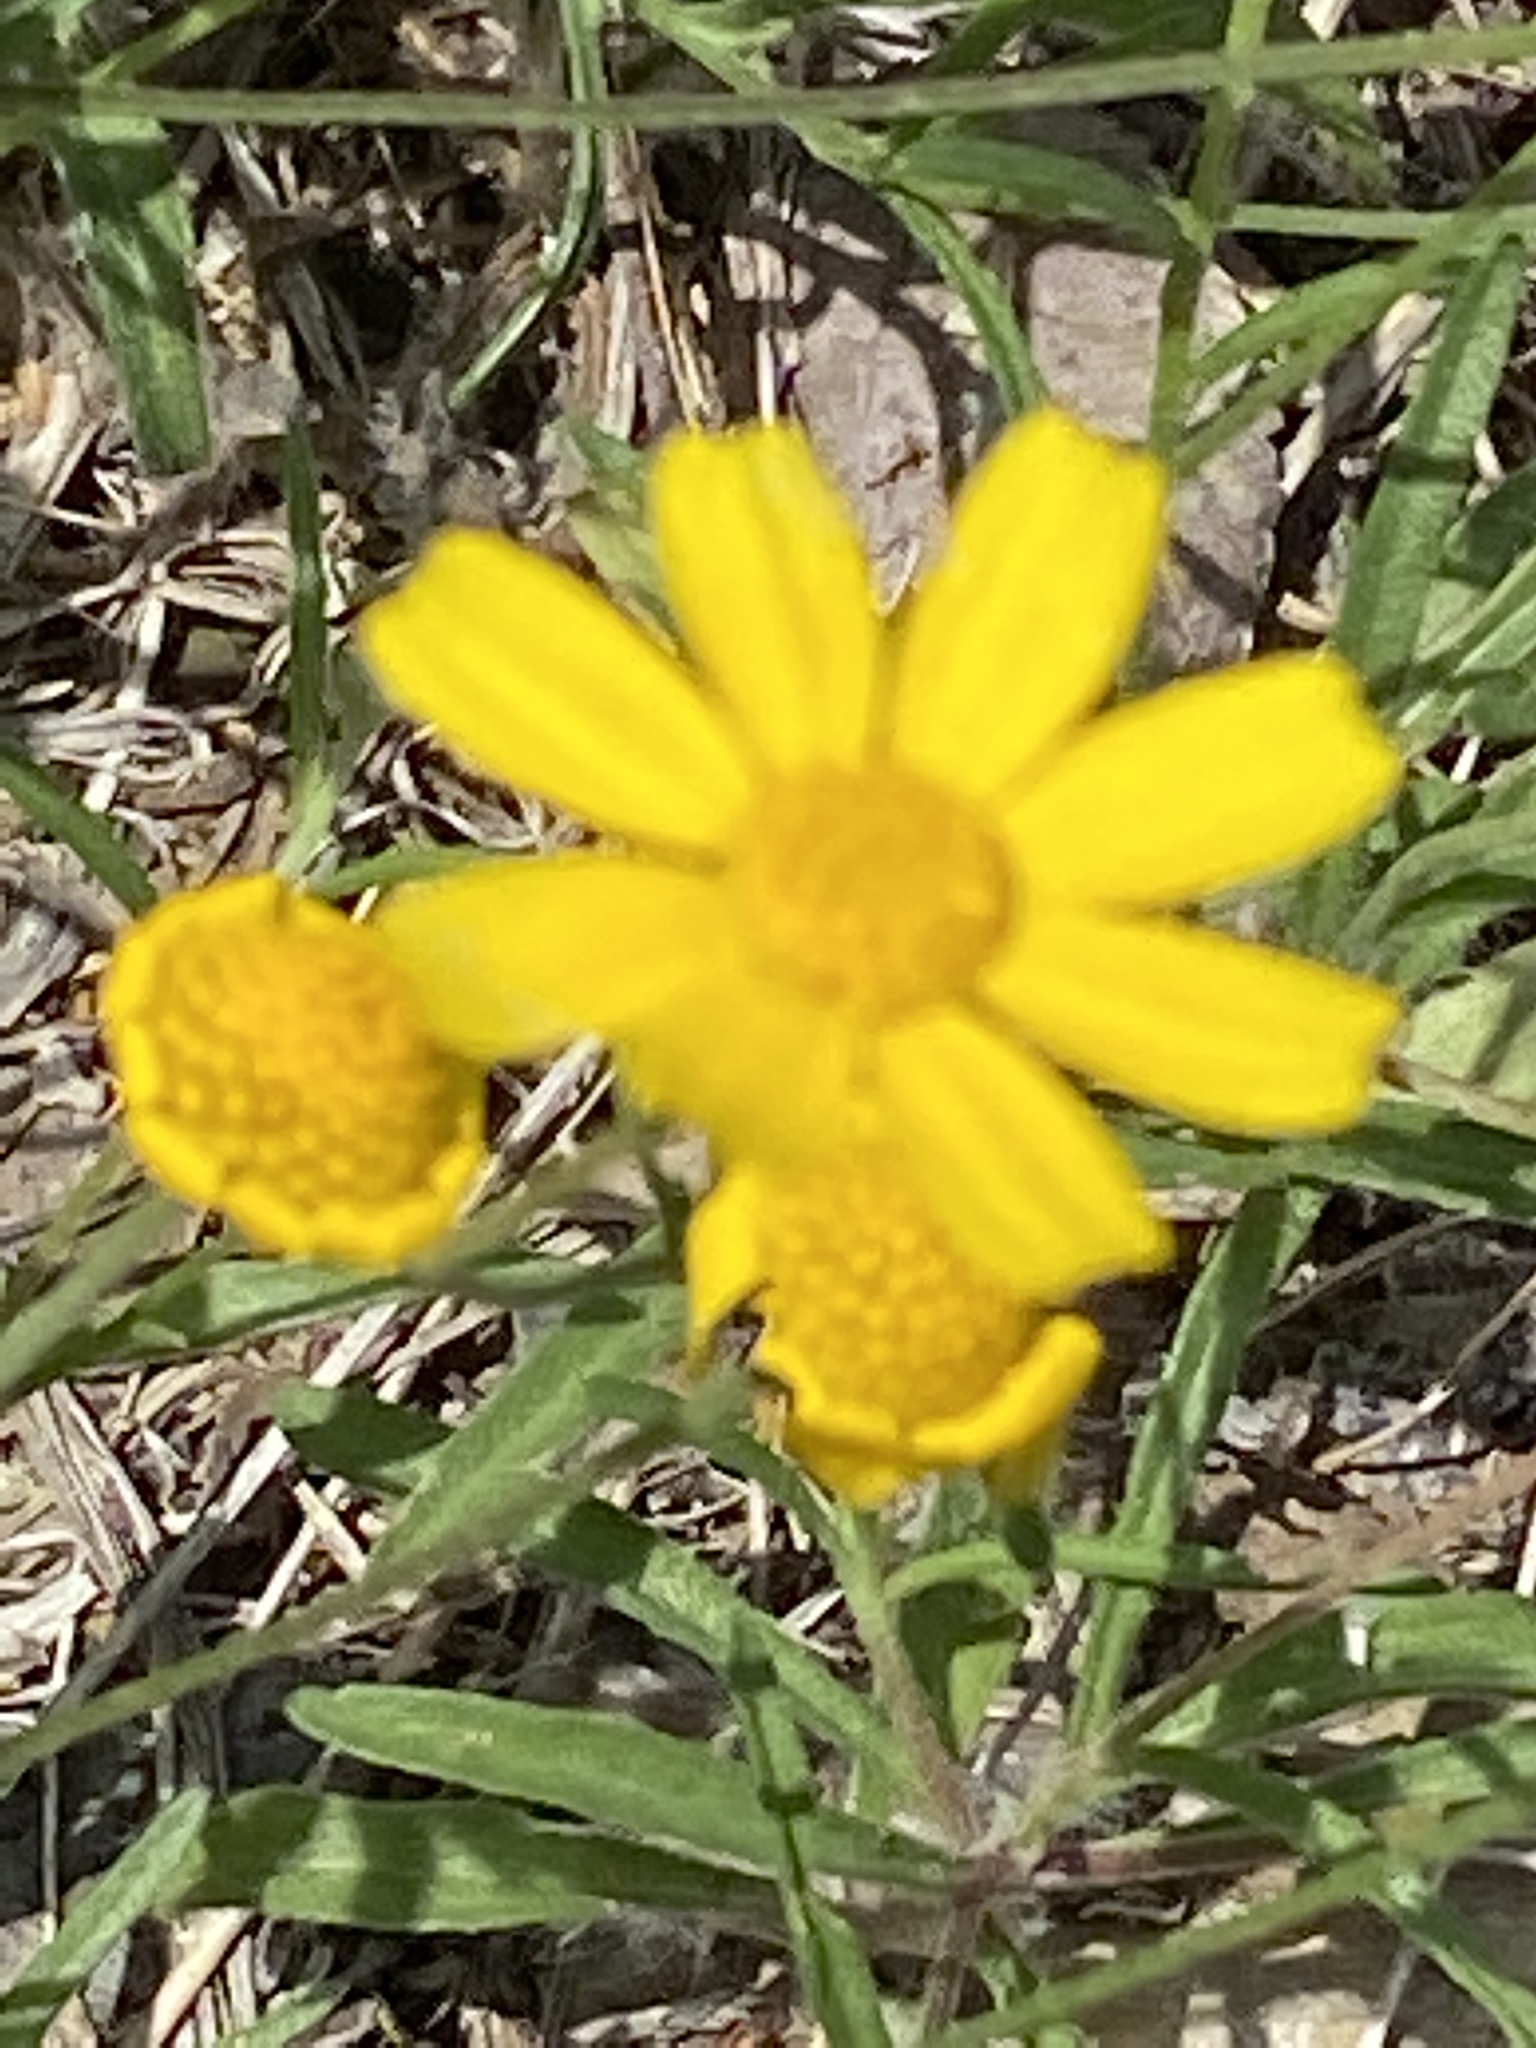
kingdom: Plantae
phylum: Tracheophyta
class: Magnoliopsida
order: Asterales
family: Asteraceae
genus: Tetraneuris
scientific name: Tetraneuris linearifolia
